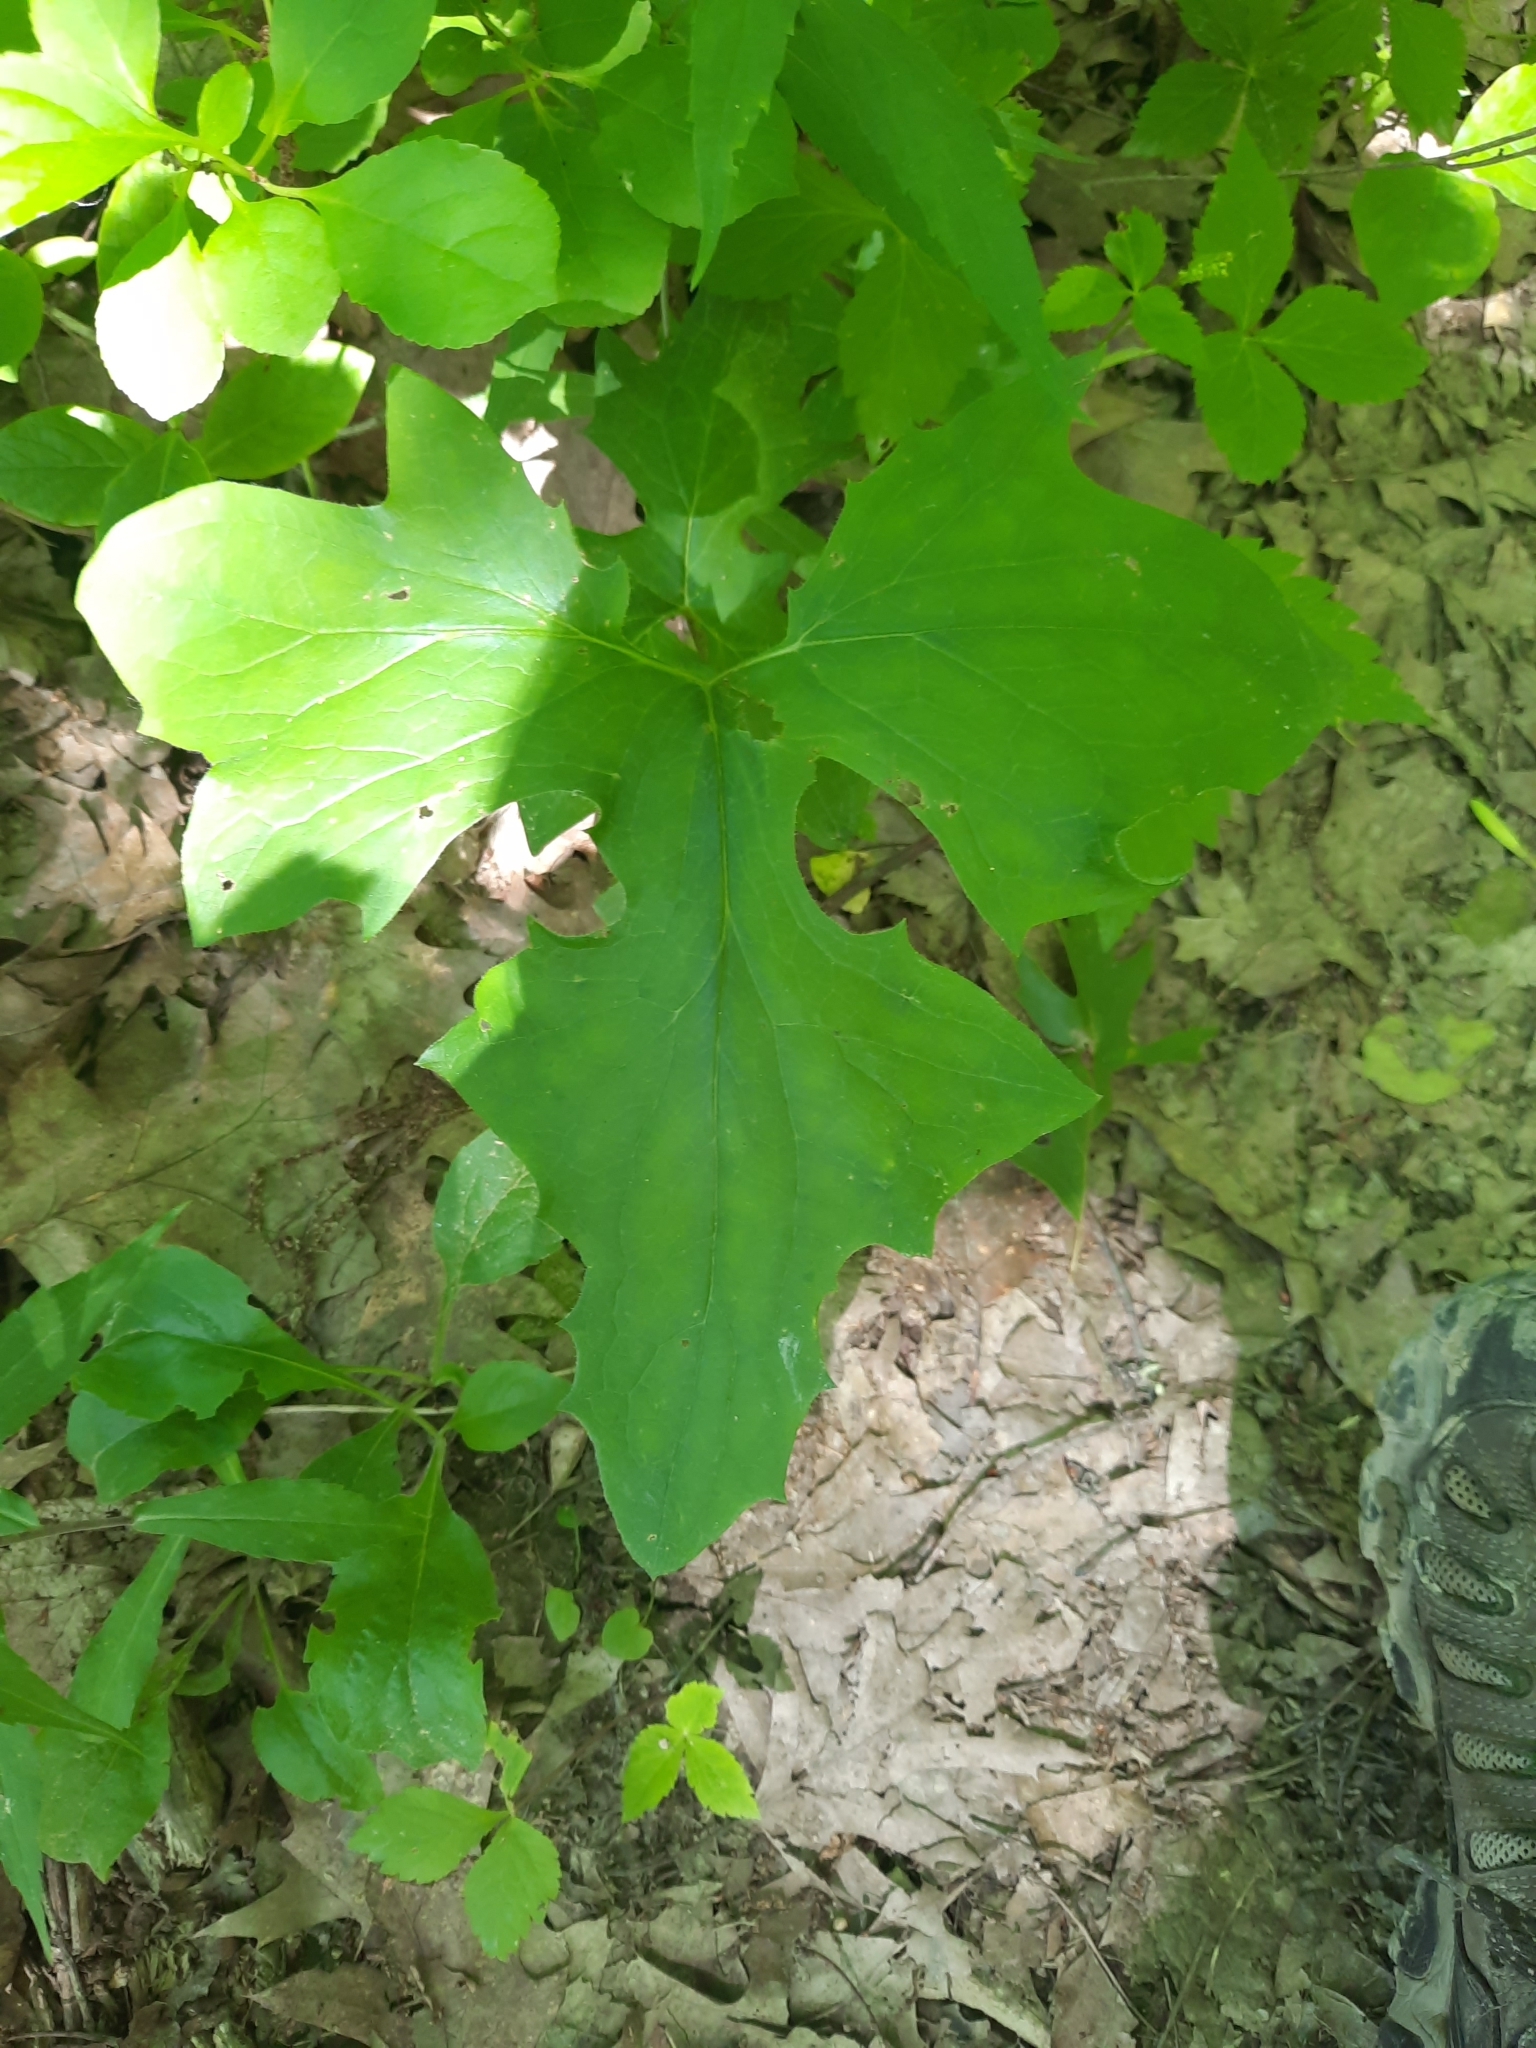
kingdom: Plantae
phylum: Tracheophyta
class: Magnoliopsida
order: Asterales
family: Asteraceae
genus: Nabalus
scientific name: Nabalus
